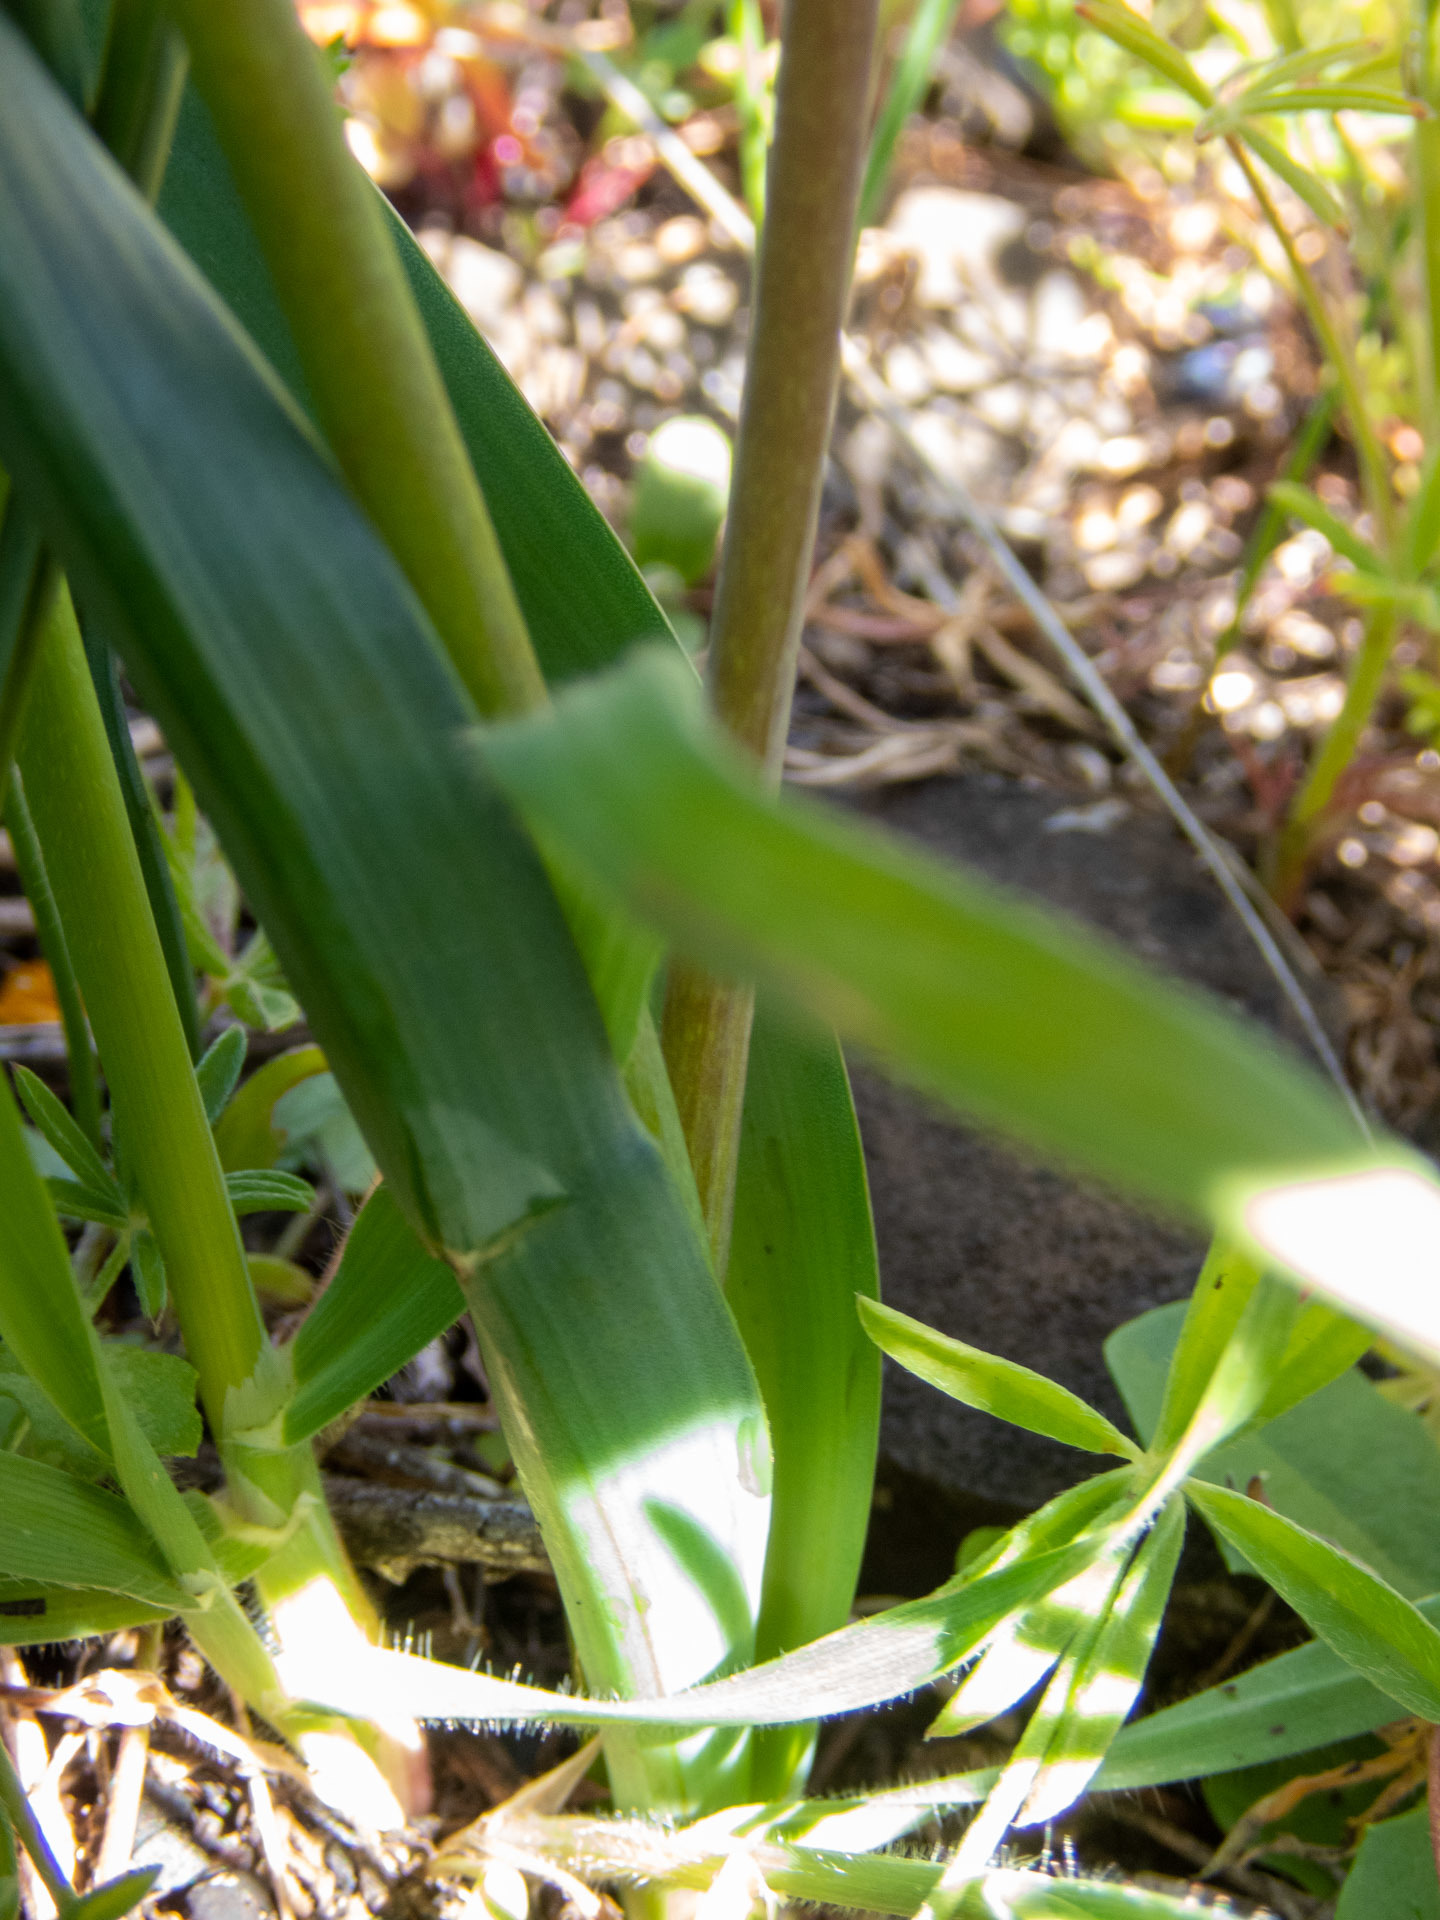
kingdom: Plantae
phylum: Tracheophyta
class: Liliopsida
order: Asparagales
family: Asparagaceae
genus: Dipterostemon
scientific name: Dipterostemon capitatus
